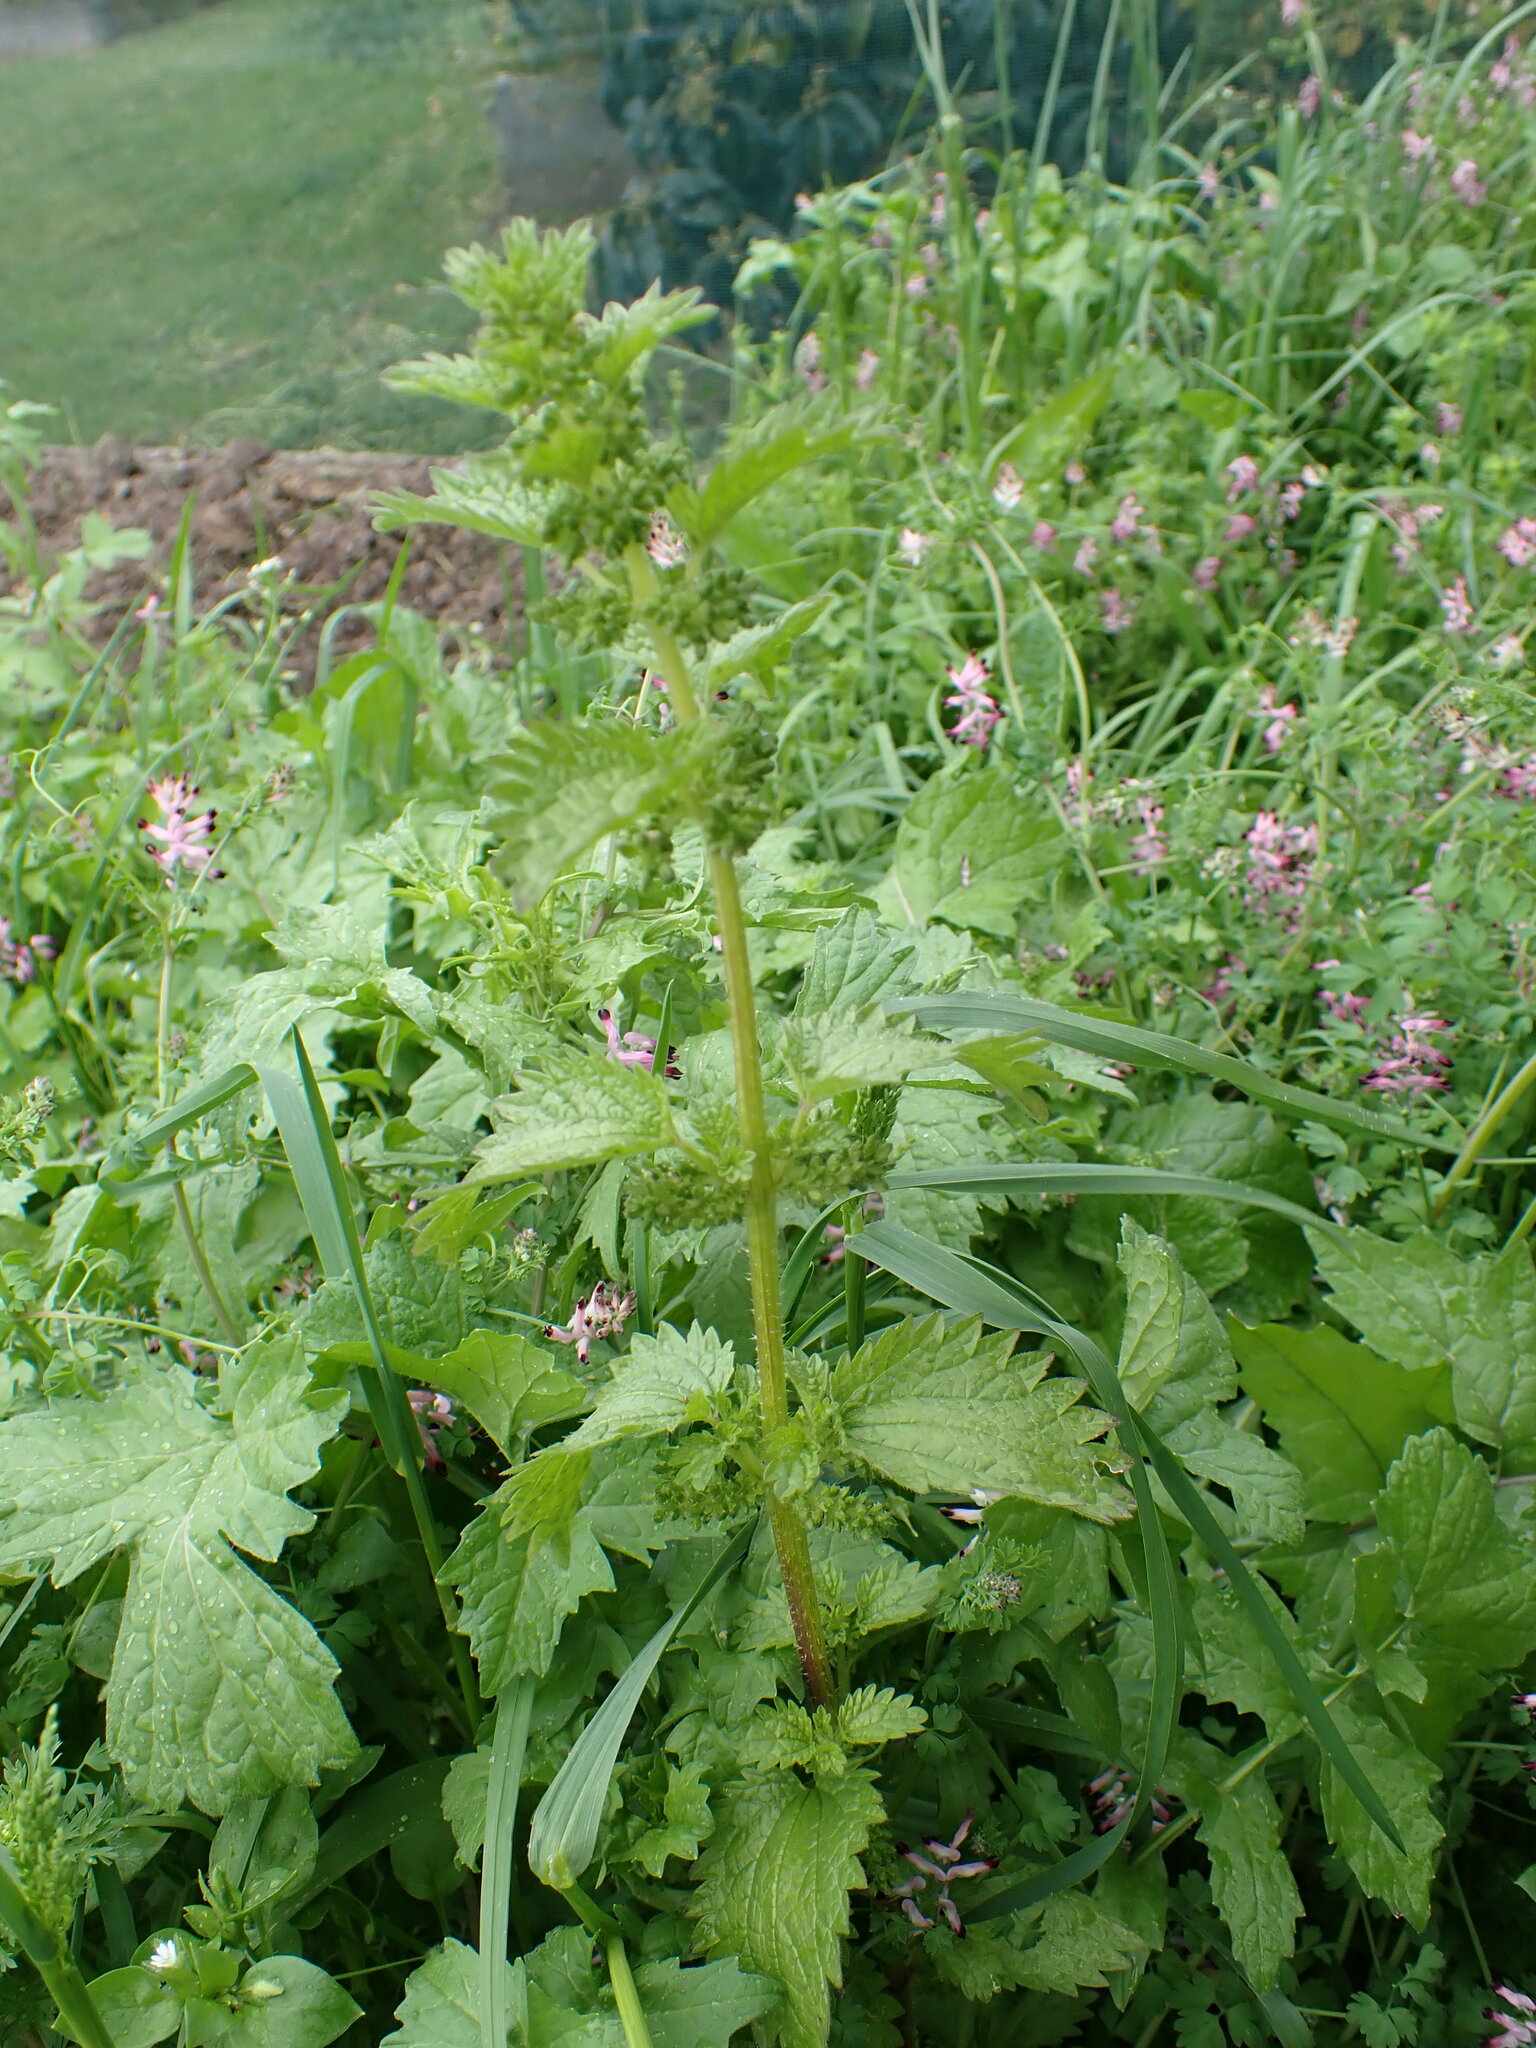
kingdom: Plantae
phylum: Tracheophyta
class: Magnoliopsida
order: Rosales
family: Urticaceae
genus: Urtica
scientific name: Urtica urens
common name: Dwarf nettle
